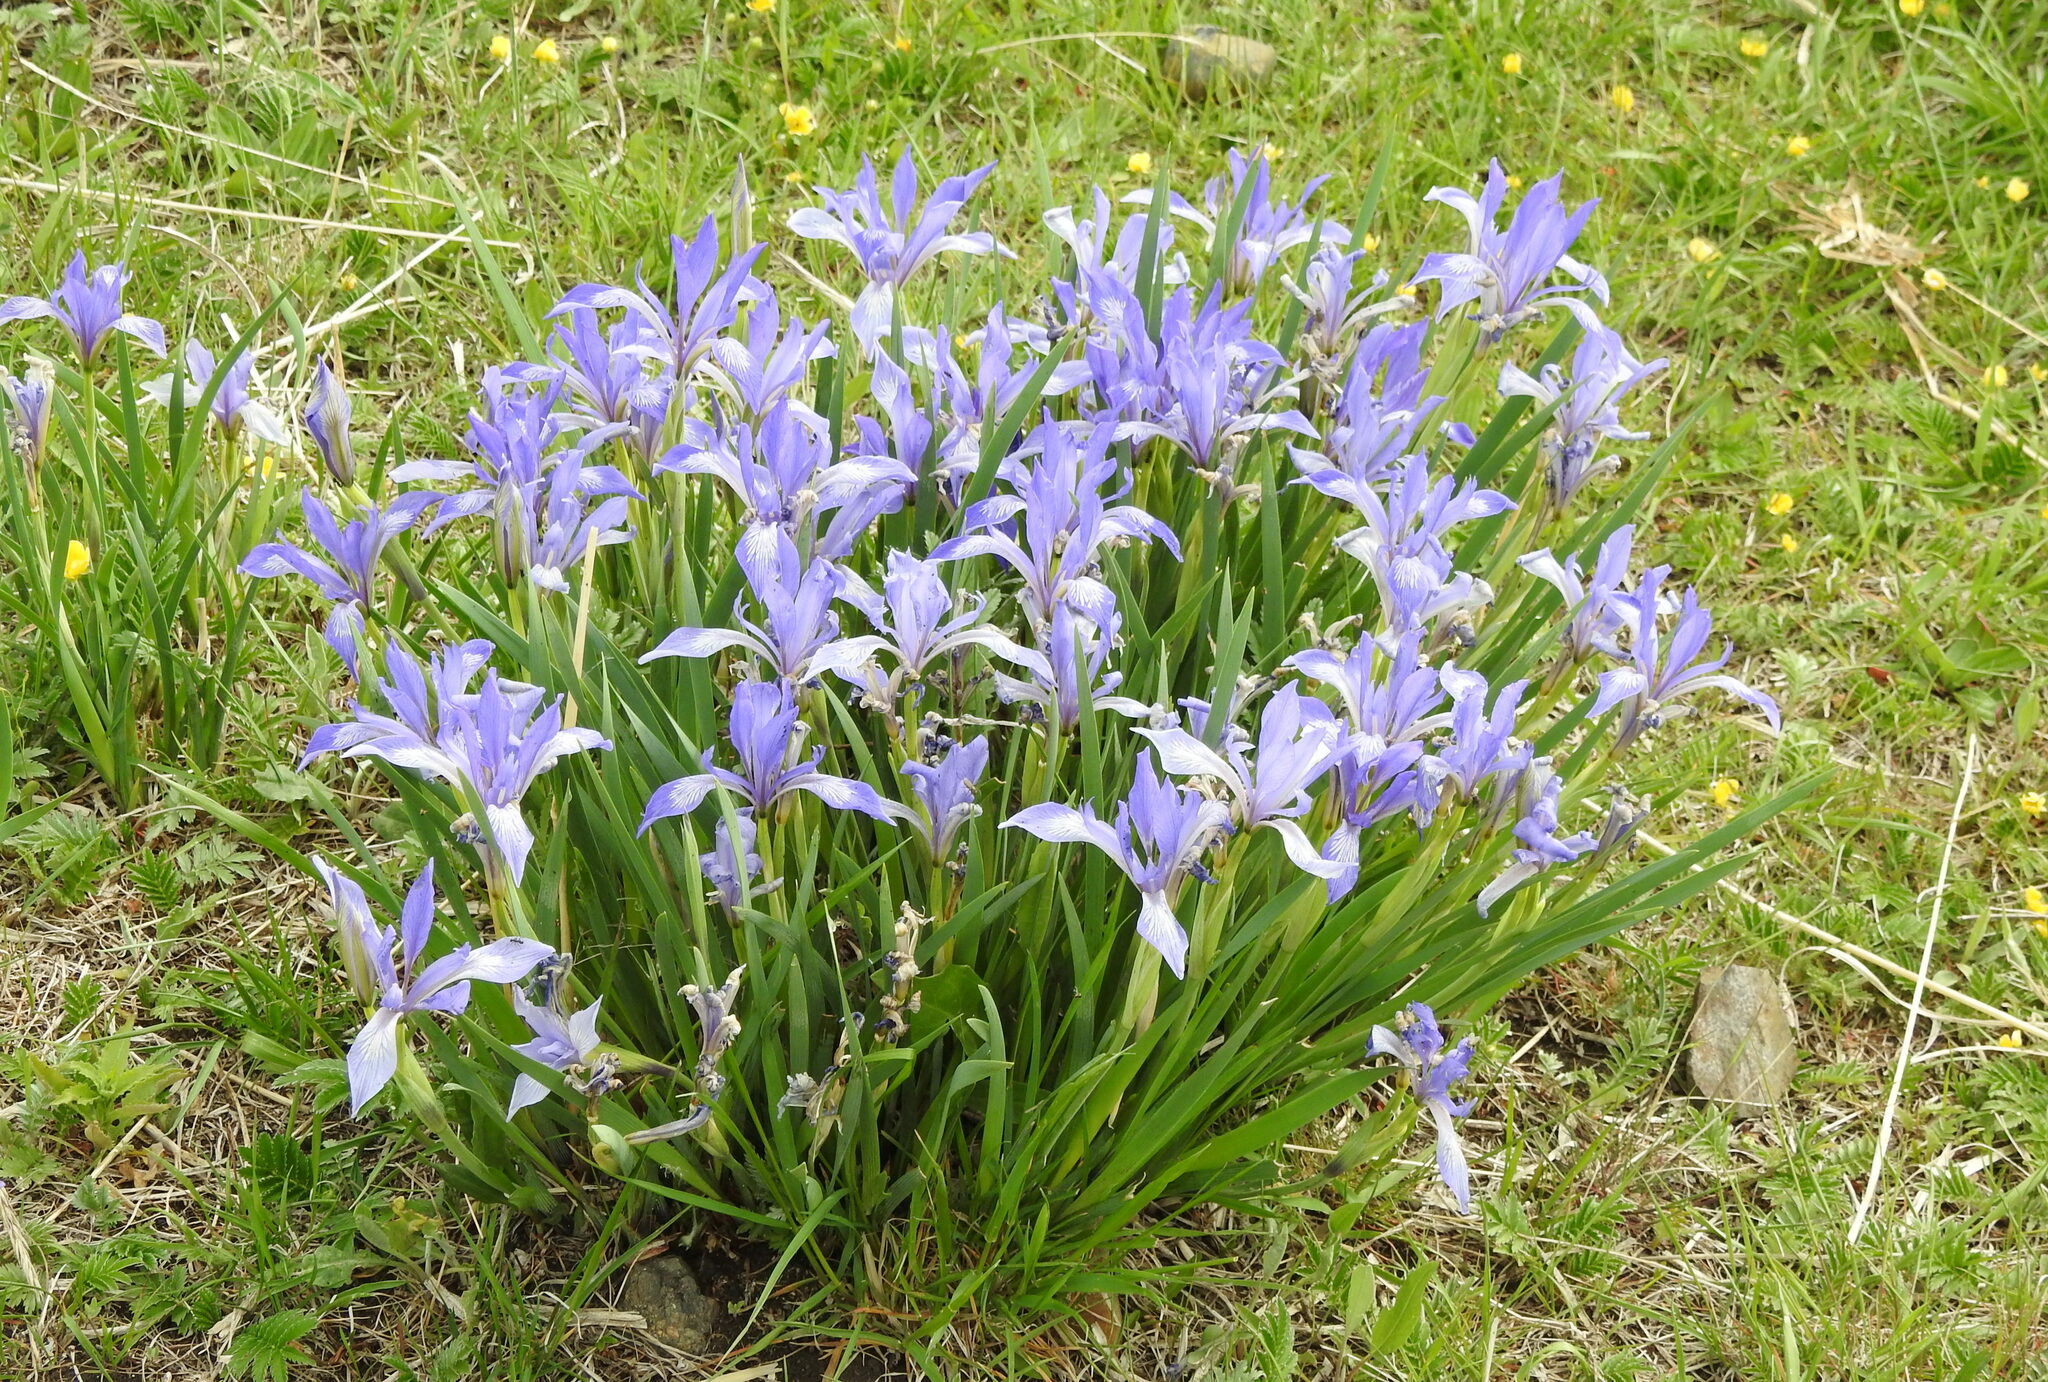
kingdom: Plantae
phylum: Tracheophyta
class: Liliopsida
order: Asparagales
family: Iridaceae
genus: Iris
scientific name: Iris lactea
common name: White-flower chinese iris
